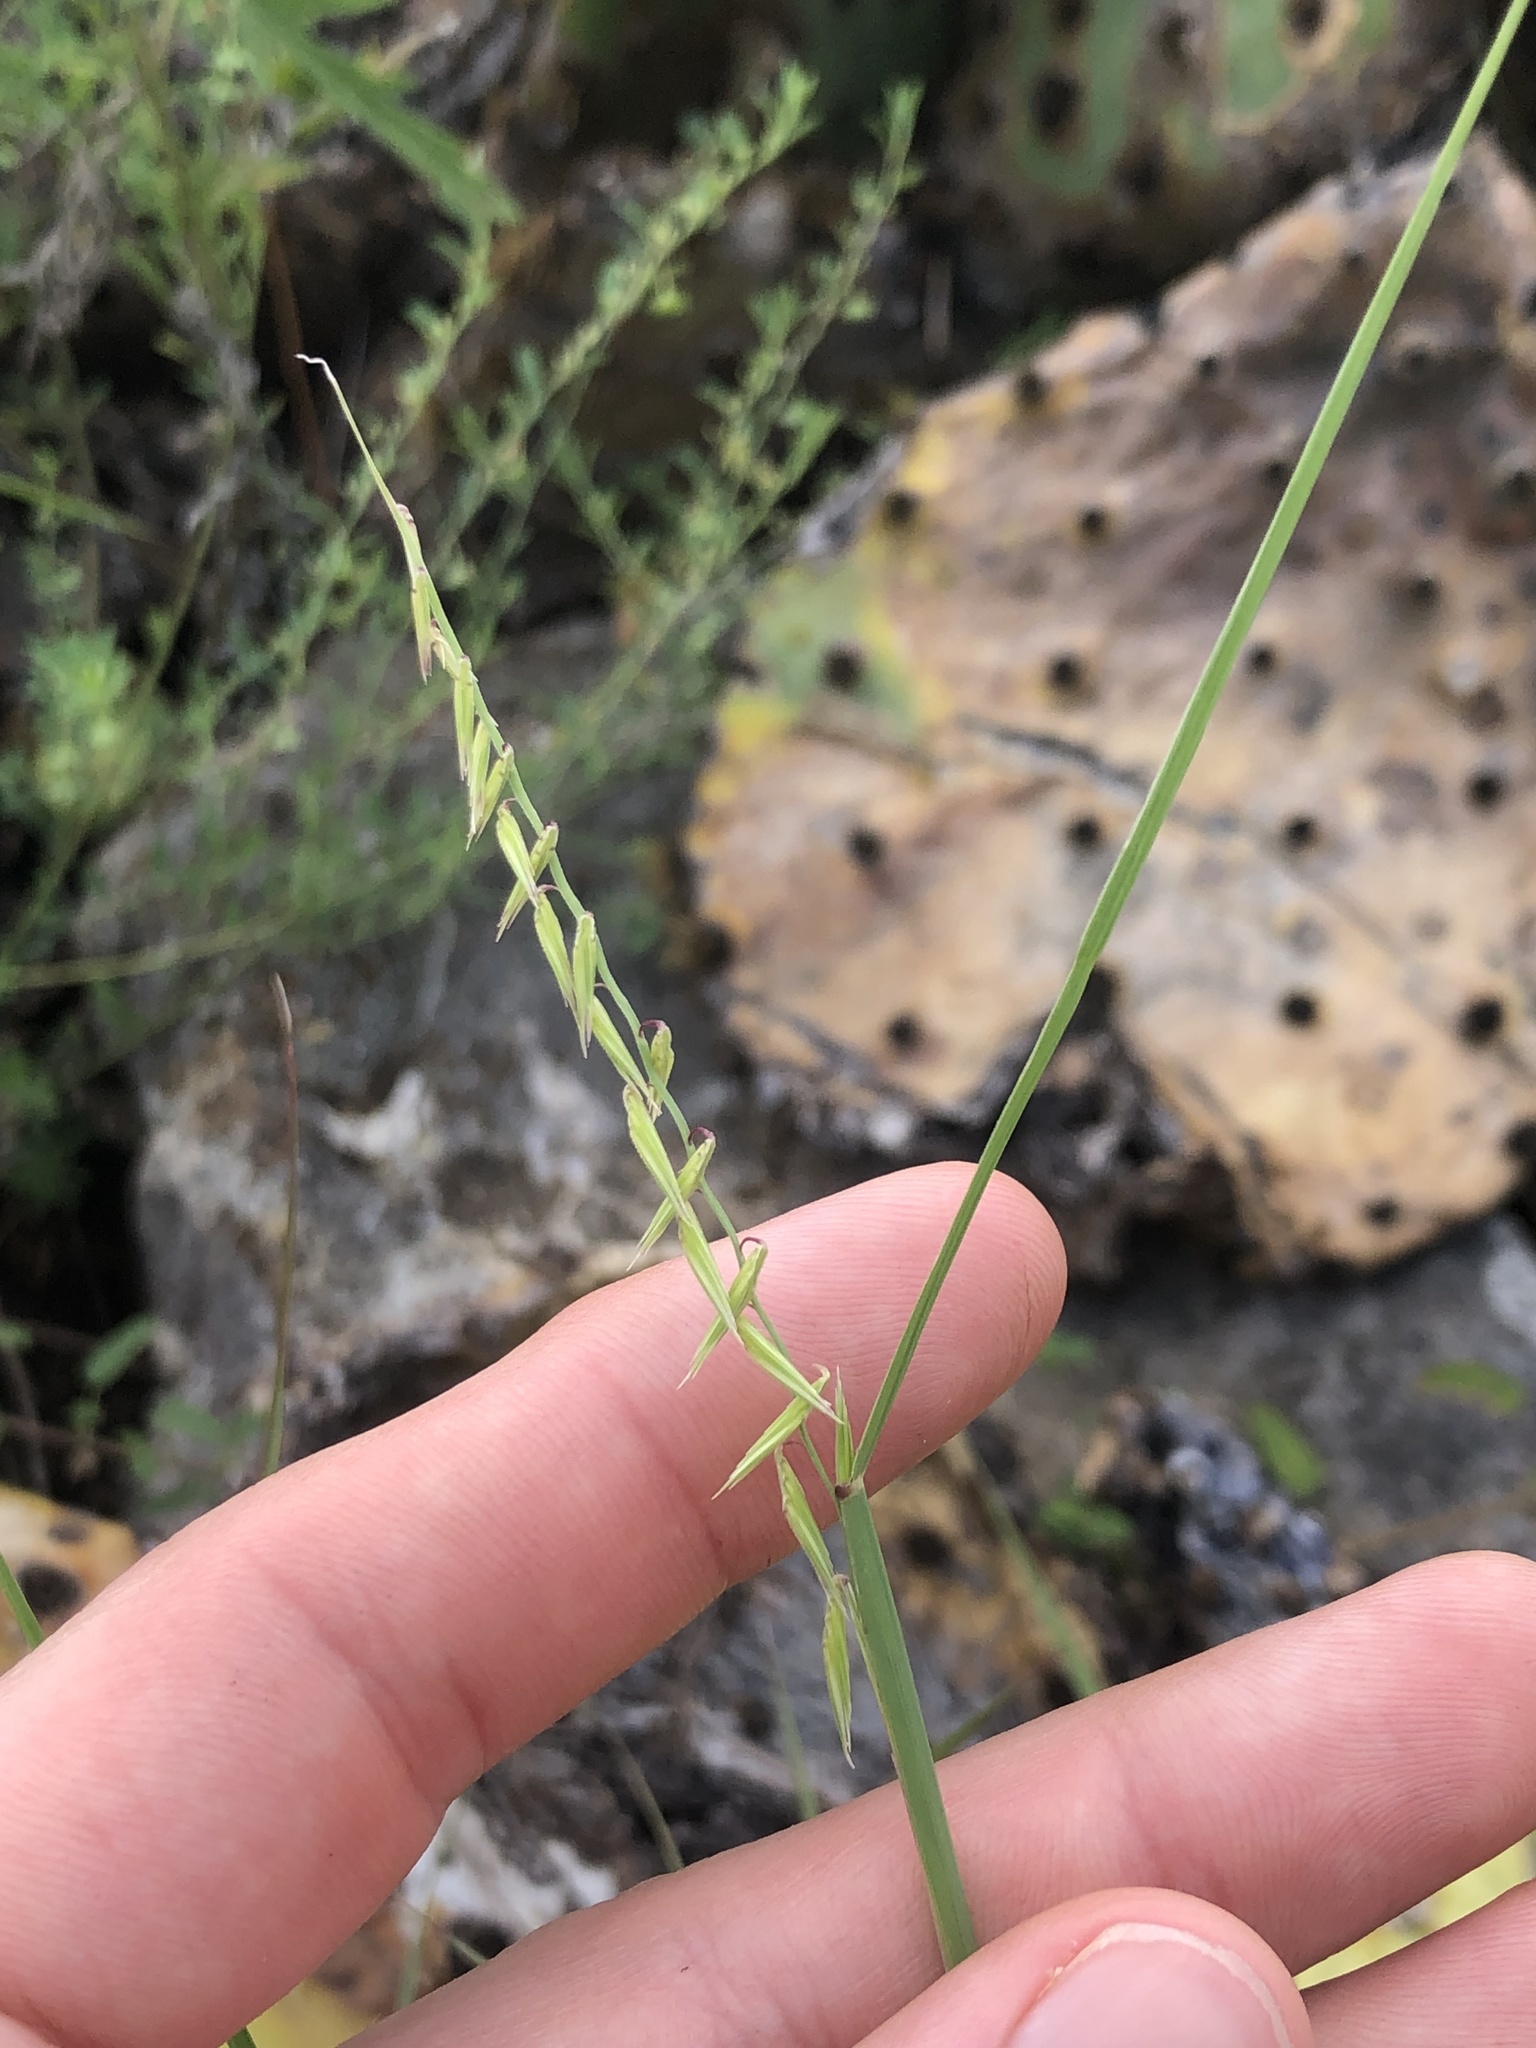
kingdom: Plantae
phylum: Tracheophyta
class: Liliopsida
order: Poales
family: Poaceae
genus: Bouteloua
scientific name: Bouteloua curtipendula
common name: Side-oats grama
